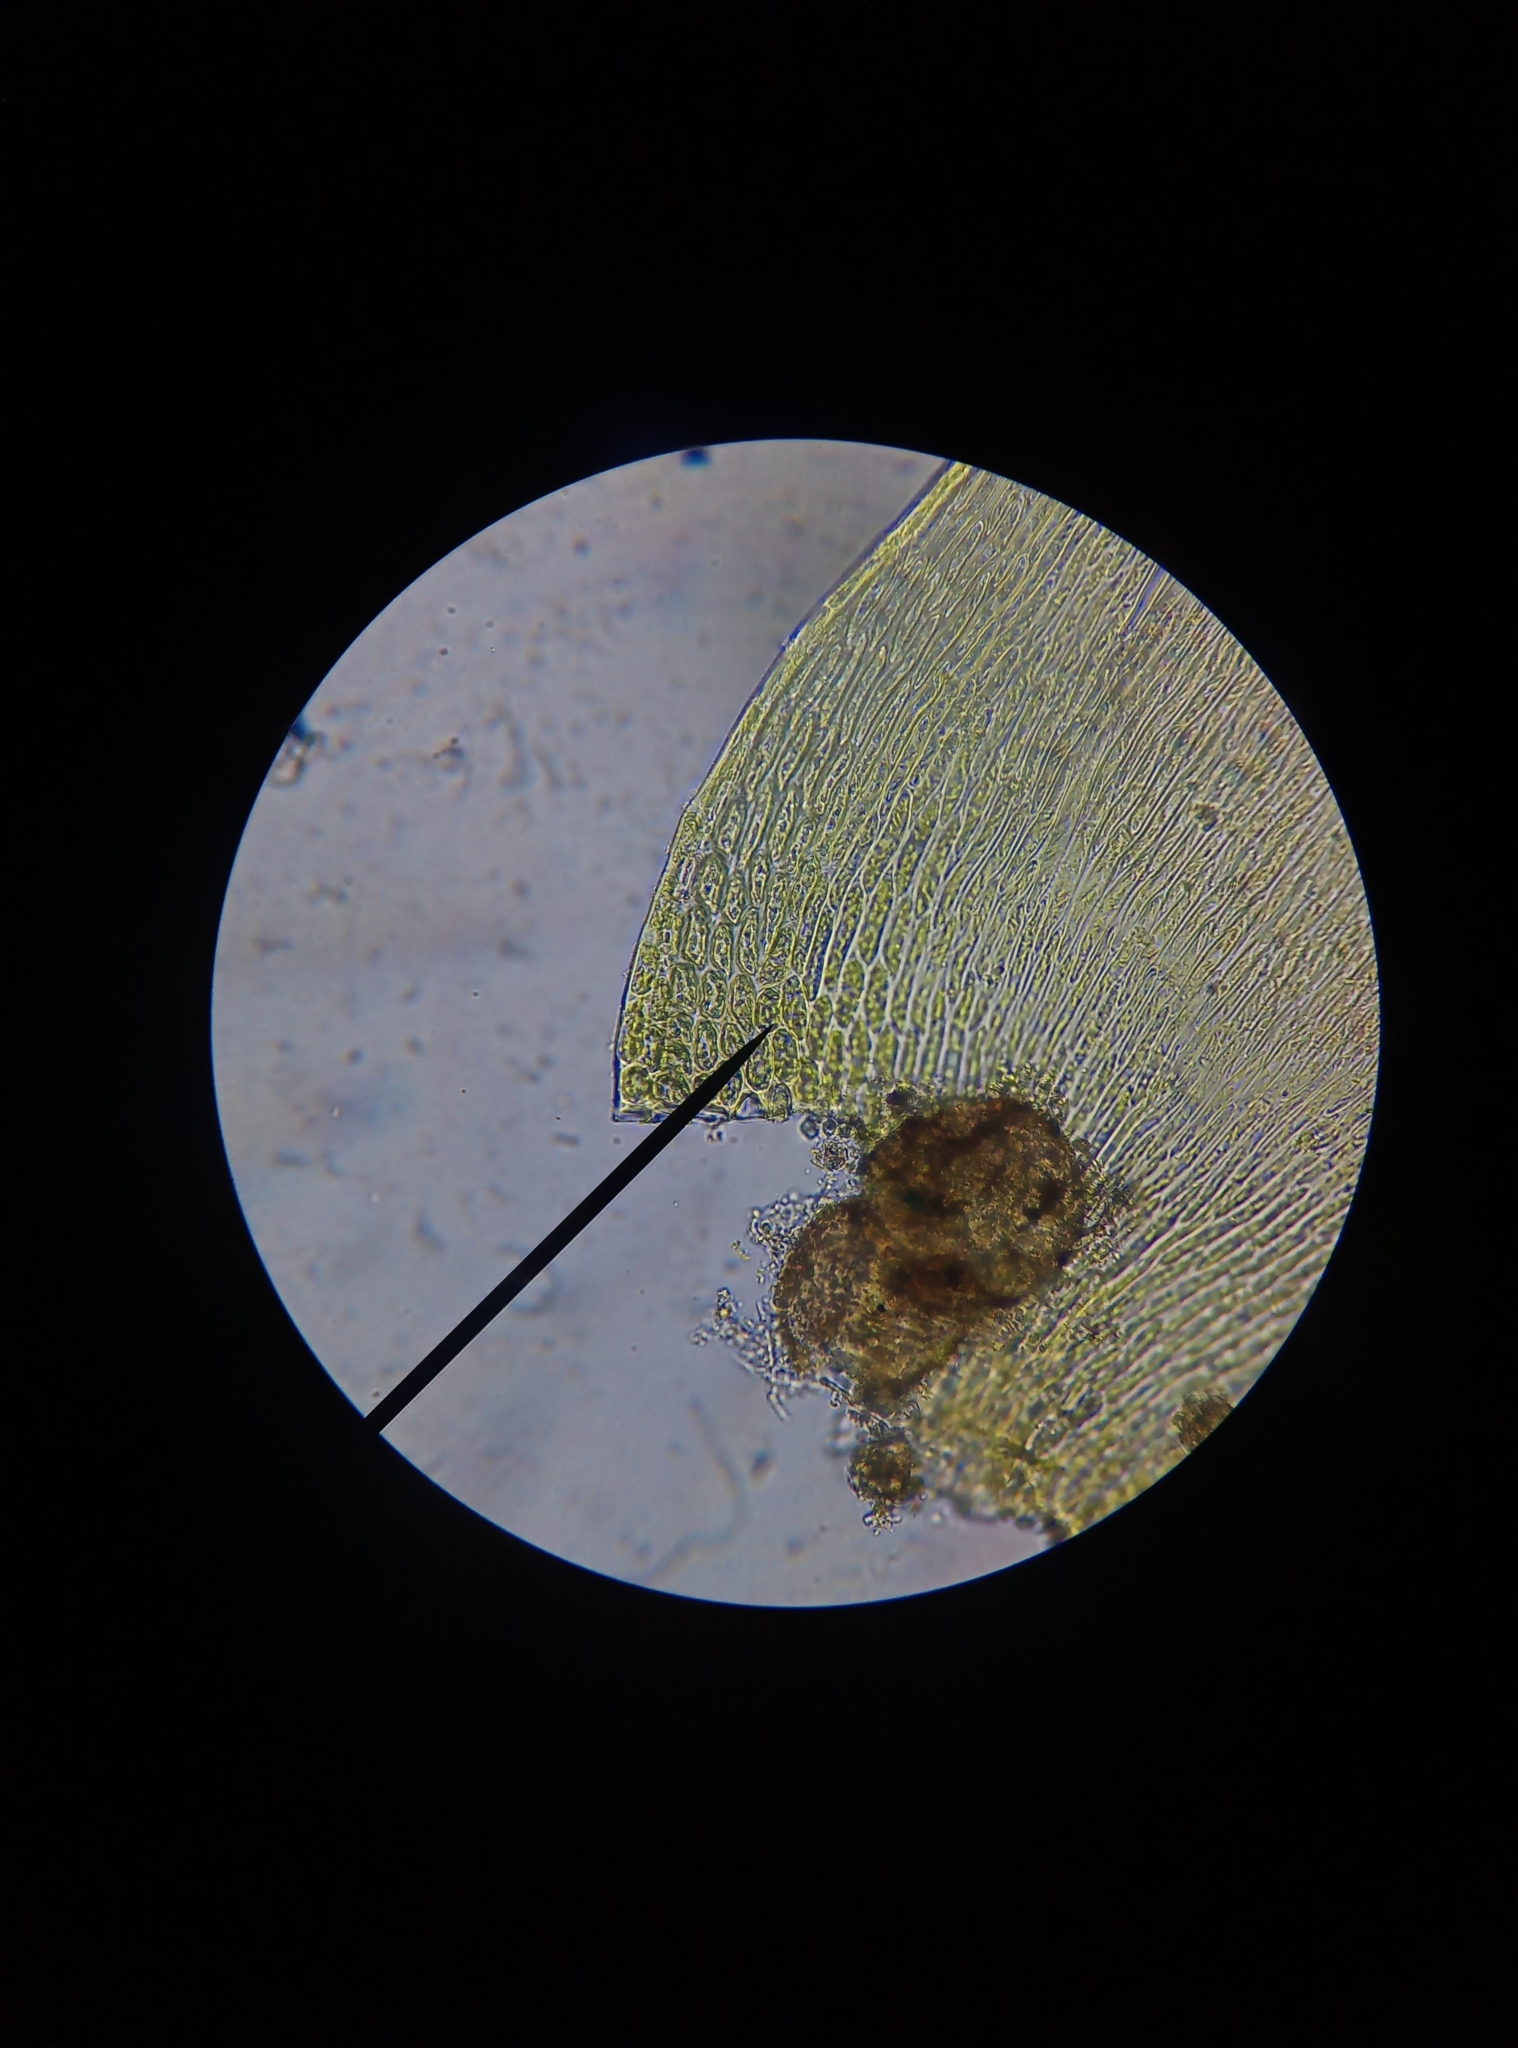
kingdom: Plantae
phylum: Bryophyta
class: Bryopsida
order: Hypnales
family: Hypnaceae
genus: Hypnum
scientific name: Hypnum cupressiforme
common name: Cypress-leaved plait-moss
